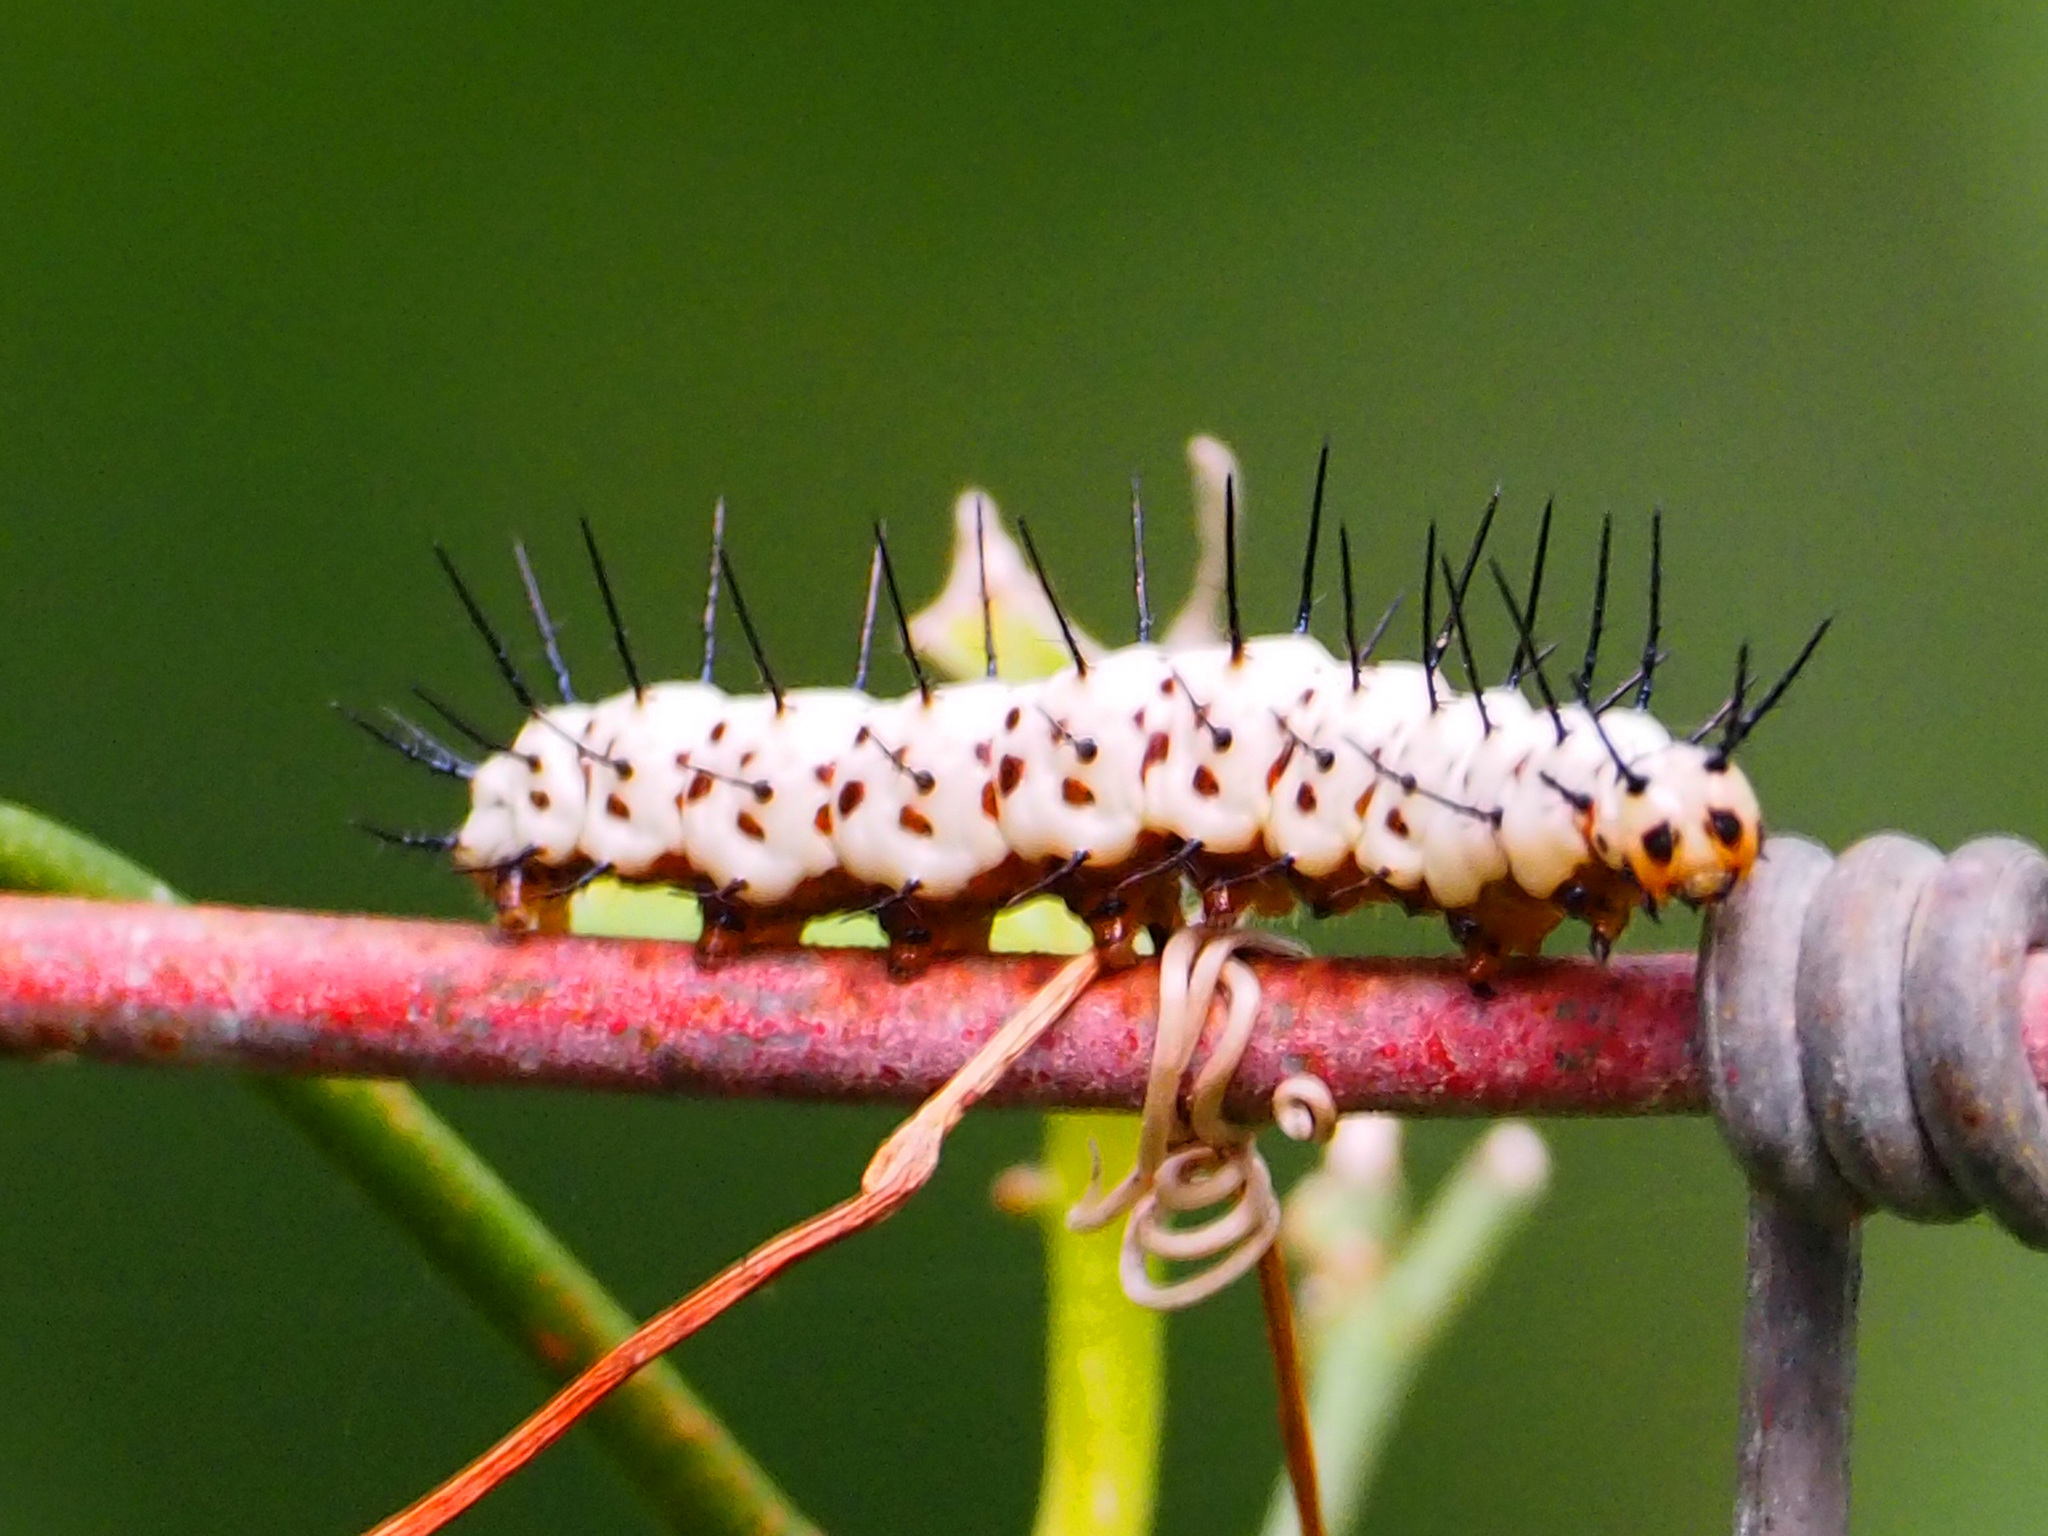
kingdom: Animalia
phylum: Arthropoda
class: Insecta
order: Lepidoptera
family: Nymphalidae
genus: Heliconius
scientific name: Heliconius charithonia
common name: Zebra long wing
